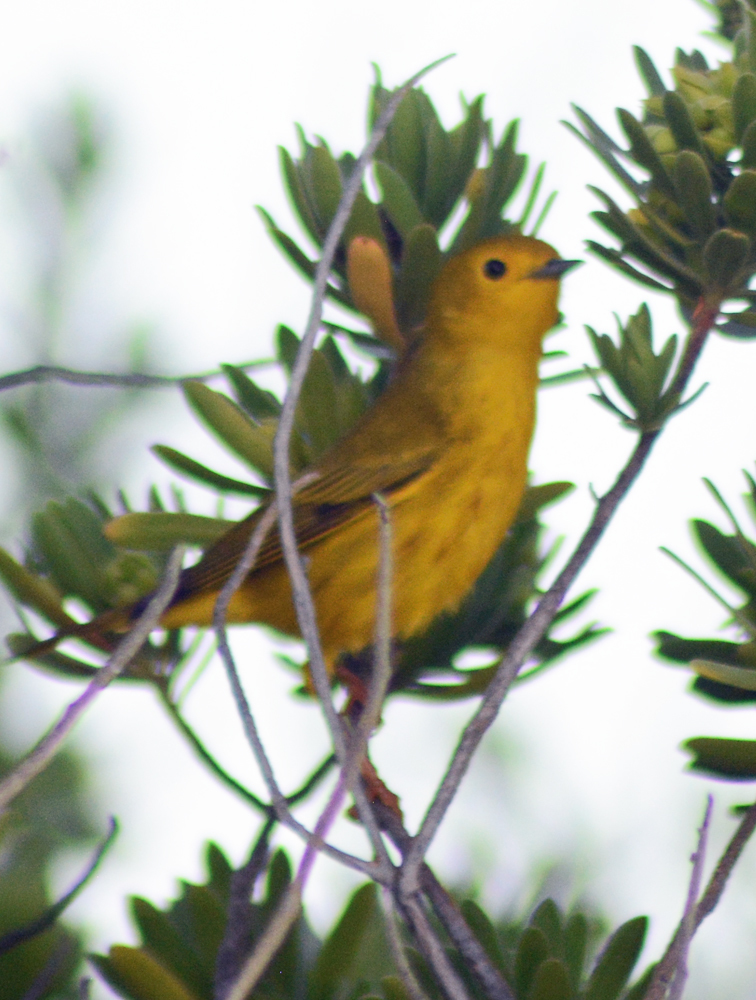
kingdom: Animalia
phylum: Chordata
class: Aves
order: Passeriformes
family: Parulidae
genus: Setophaga
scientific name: Setophaga petechia
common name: Yellow warbler
